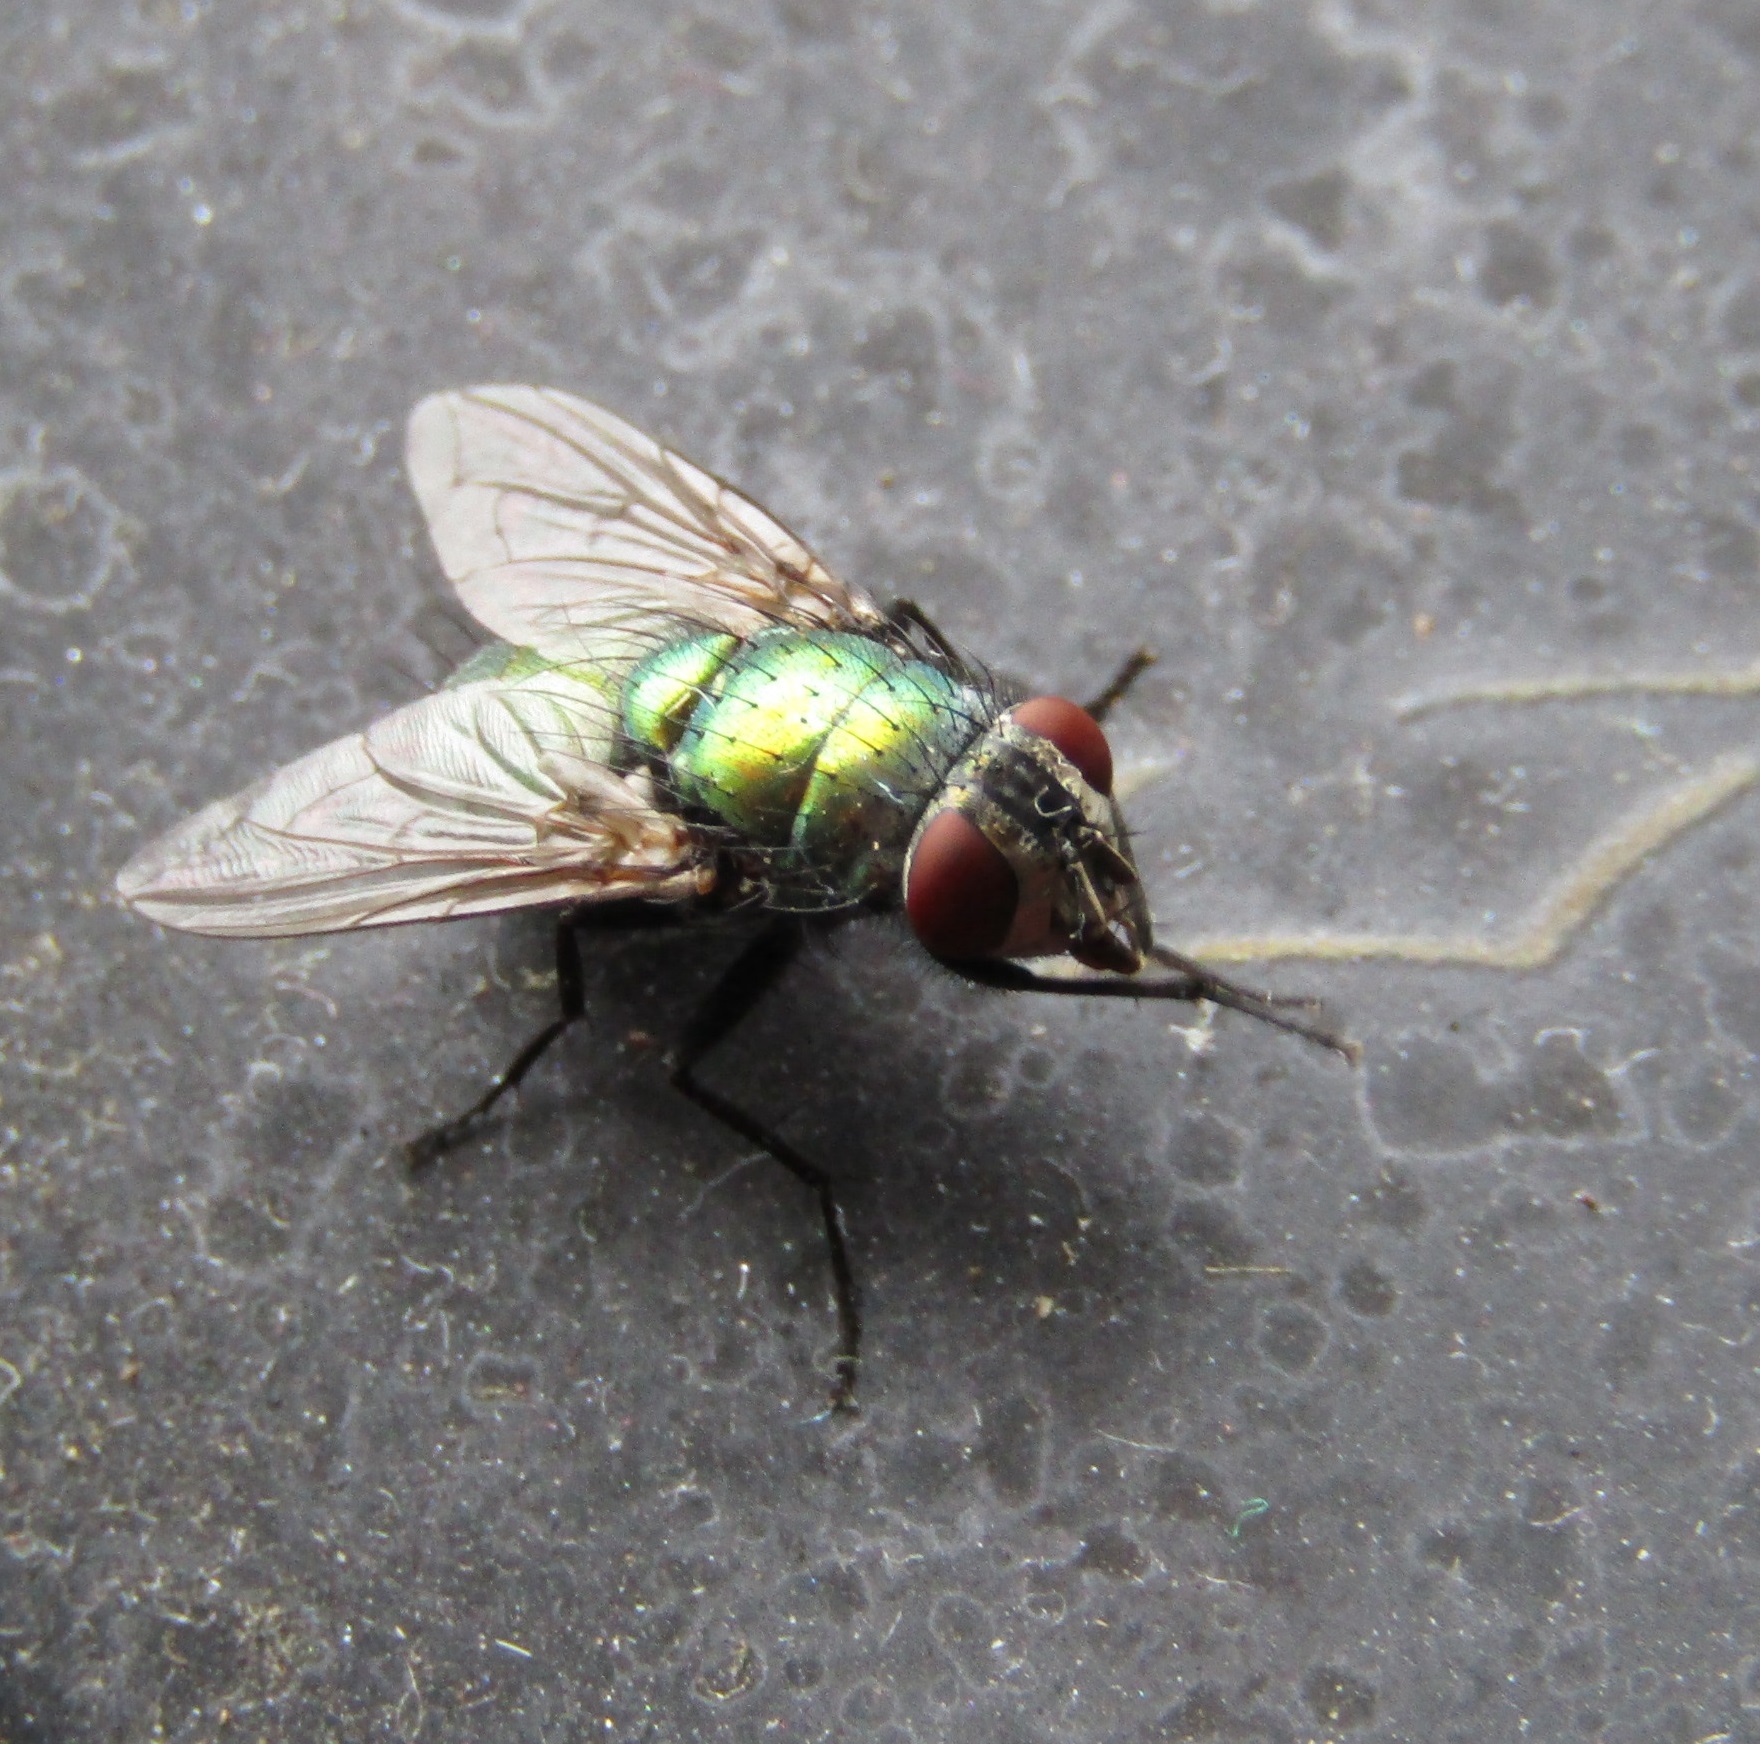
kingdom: Animalia
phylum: Arthropoda
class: Insecta
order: Diptera
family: Calliphoridae
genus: Lucilia
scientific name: Lucilia sericata
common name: Blow fly
